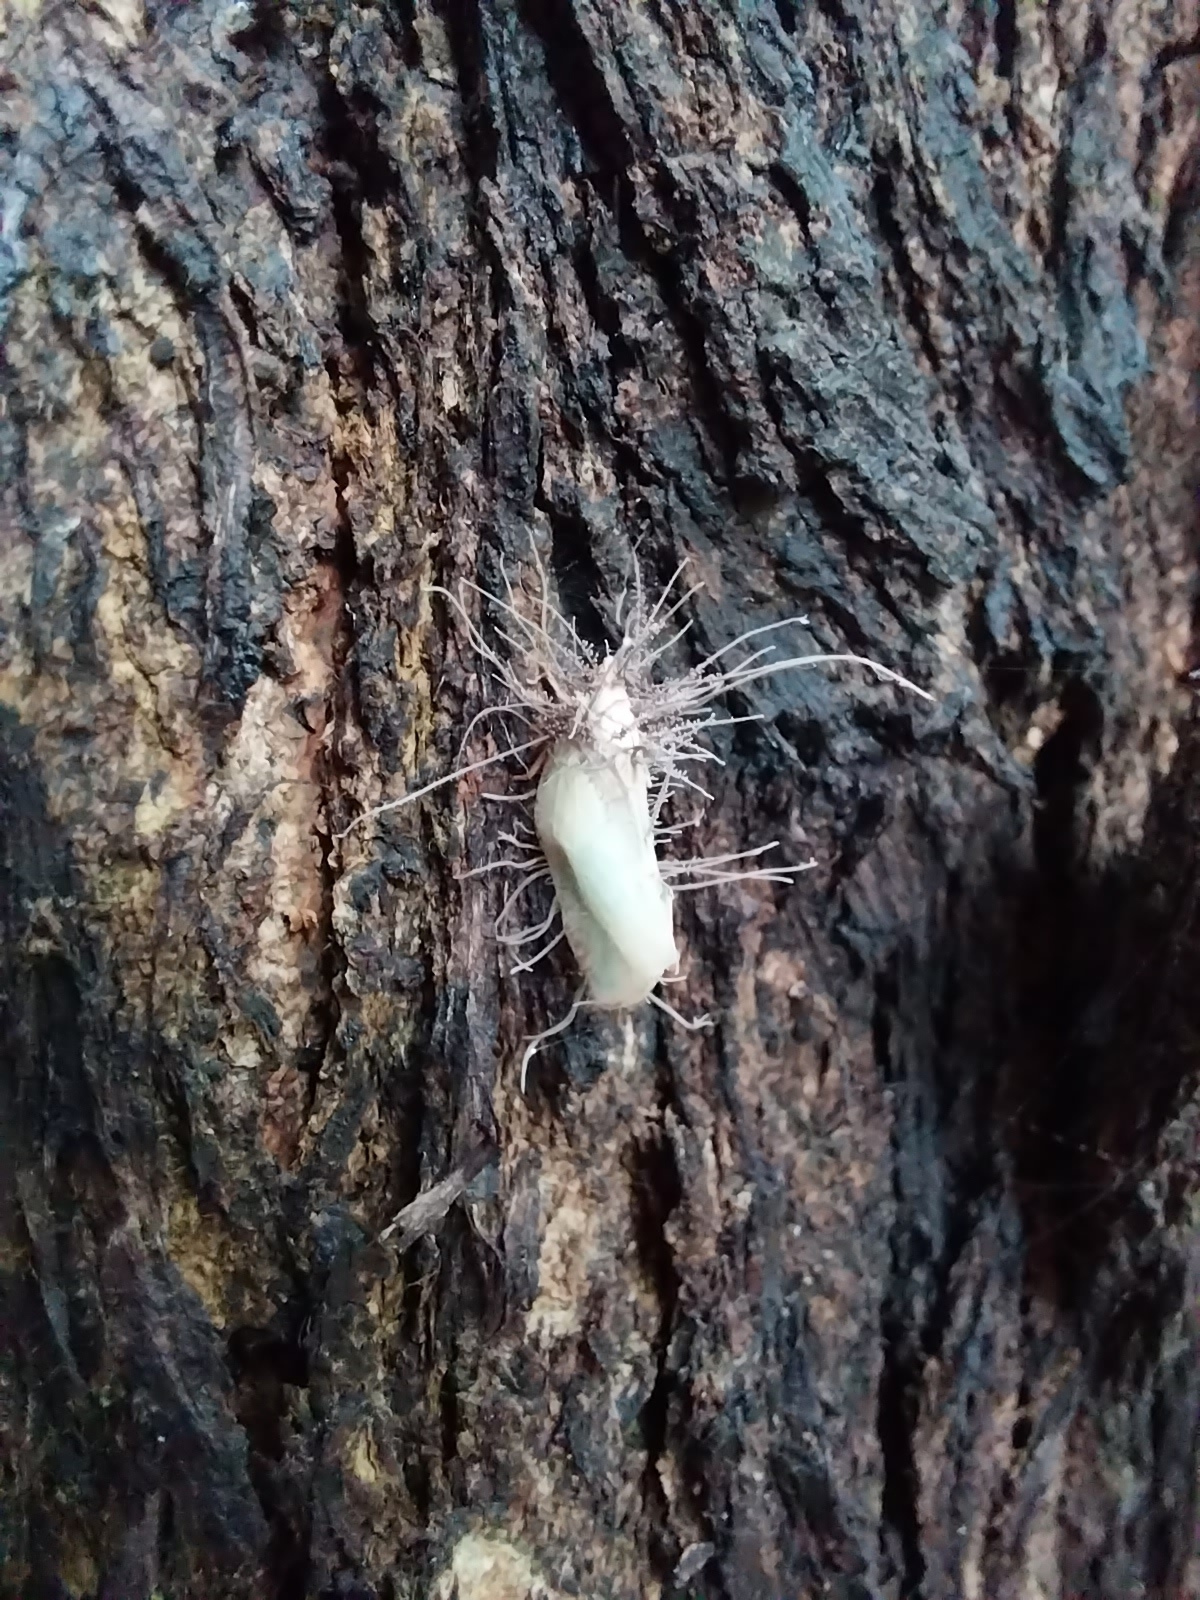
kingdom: Animalia
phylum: Arthropoda
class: Insecta
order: Hemiptera
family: Flatidae
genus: Colgar
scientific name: Colgar peracuta
